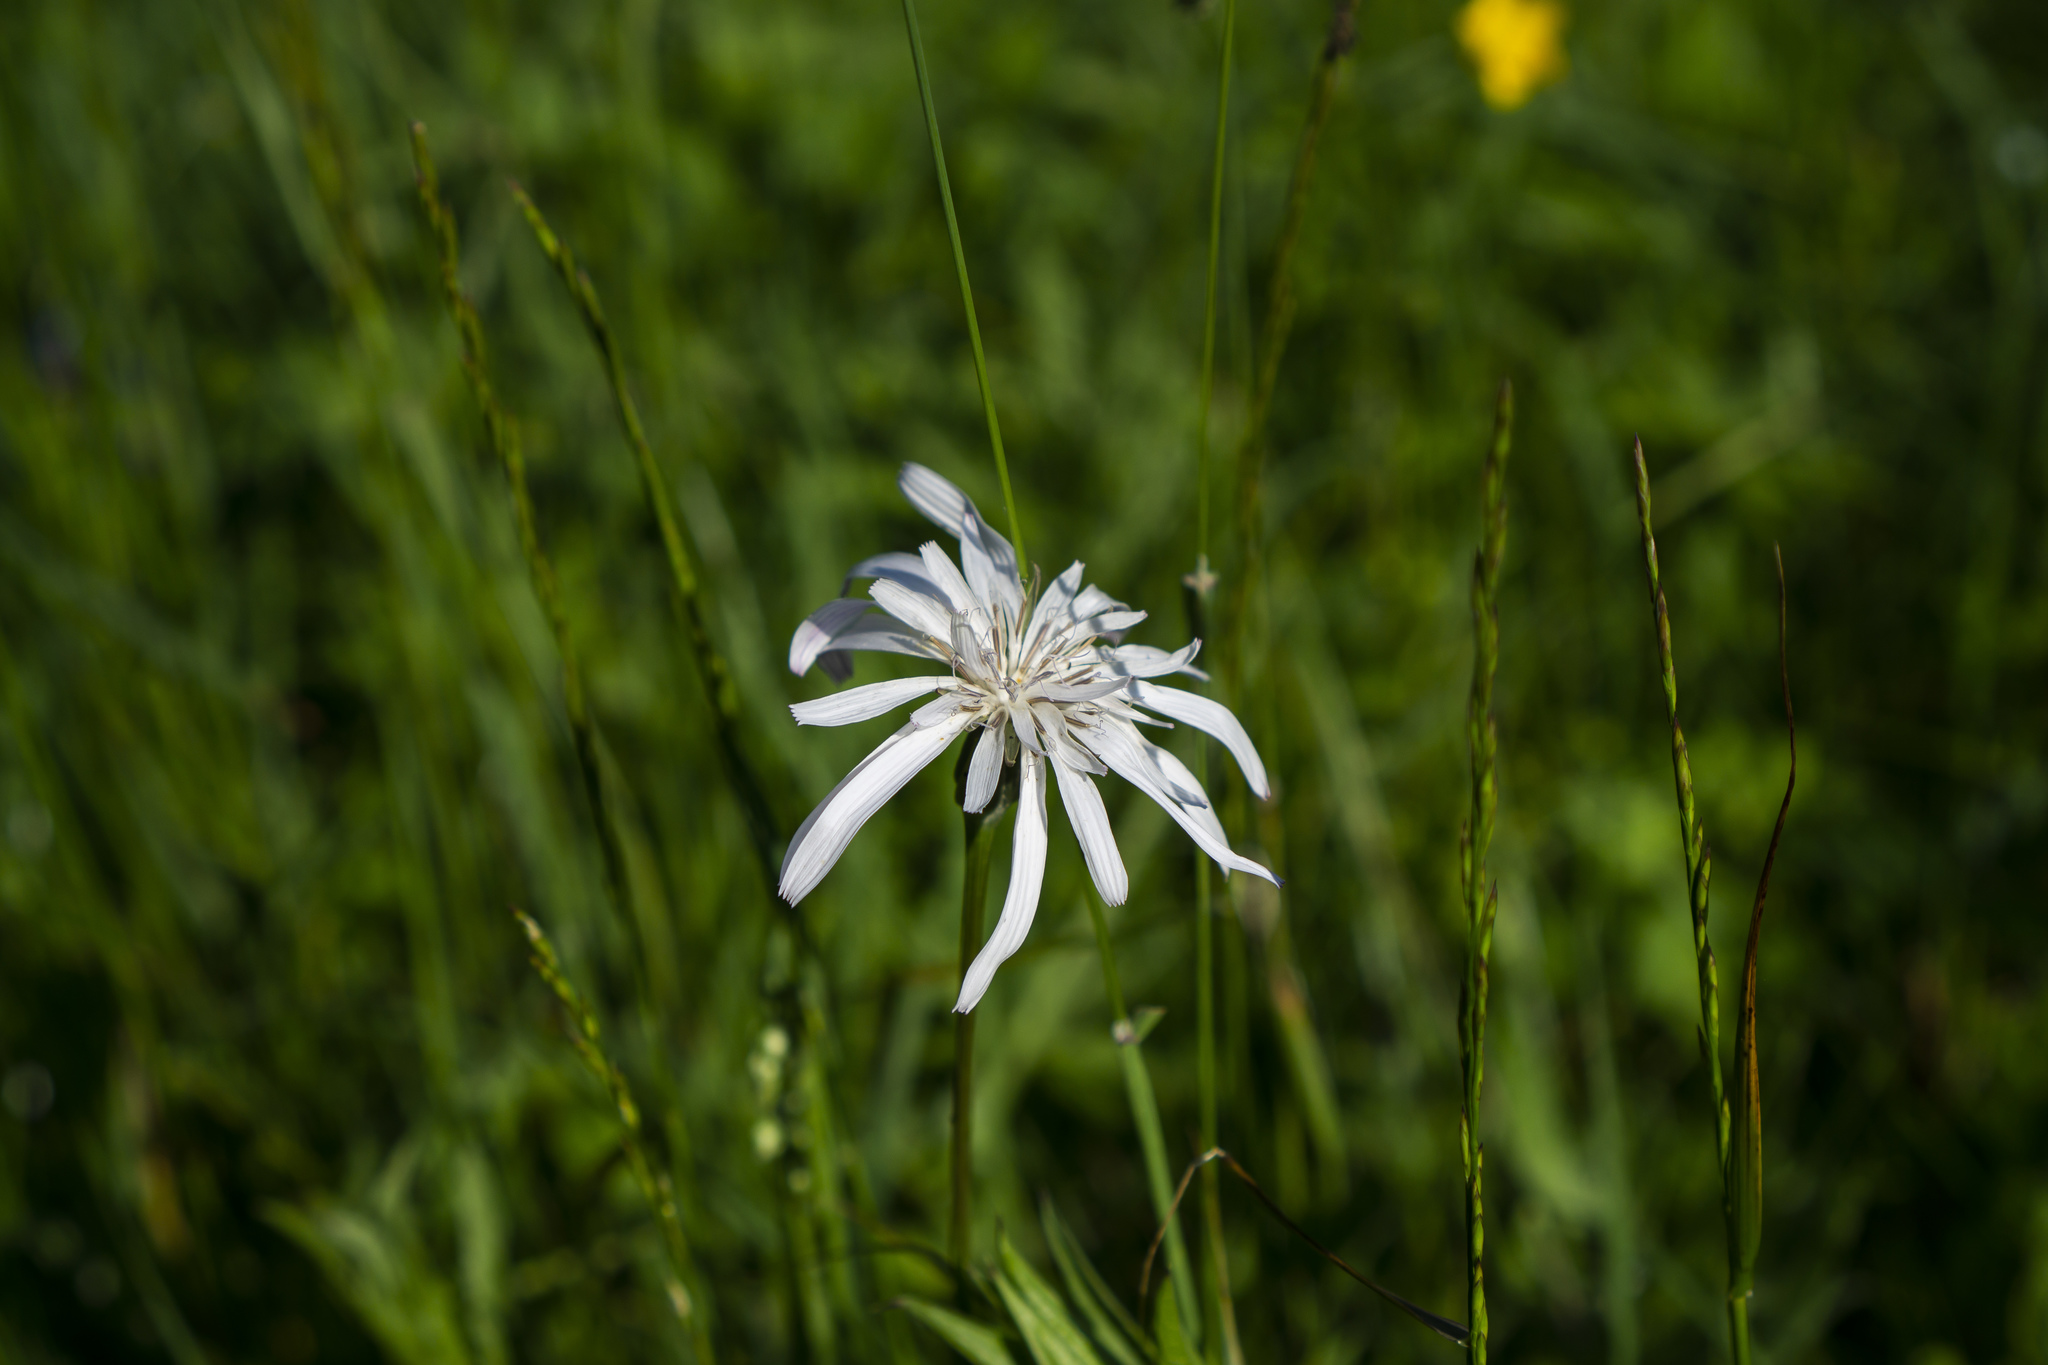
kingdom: Plantae
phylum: Tracheophyta
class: Magnoliopsida
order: Asterales
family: Asteraceae
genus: Scorzonera
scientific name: Scorzonera rosea
